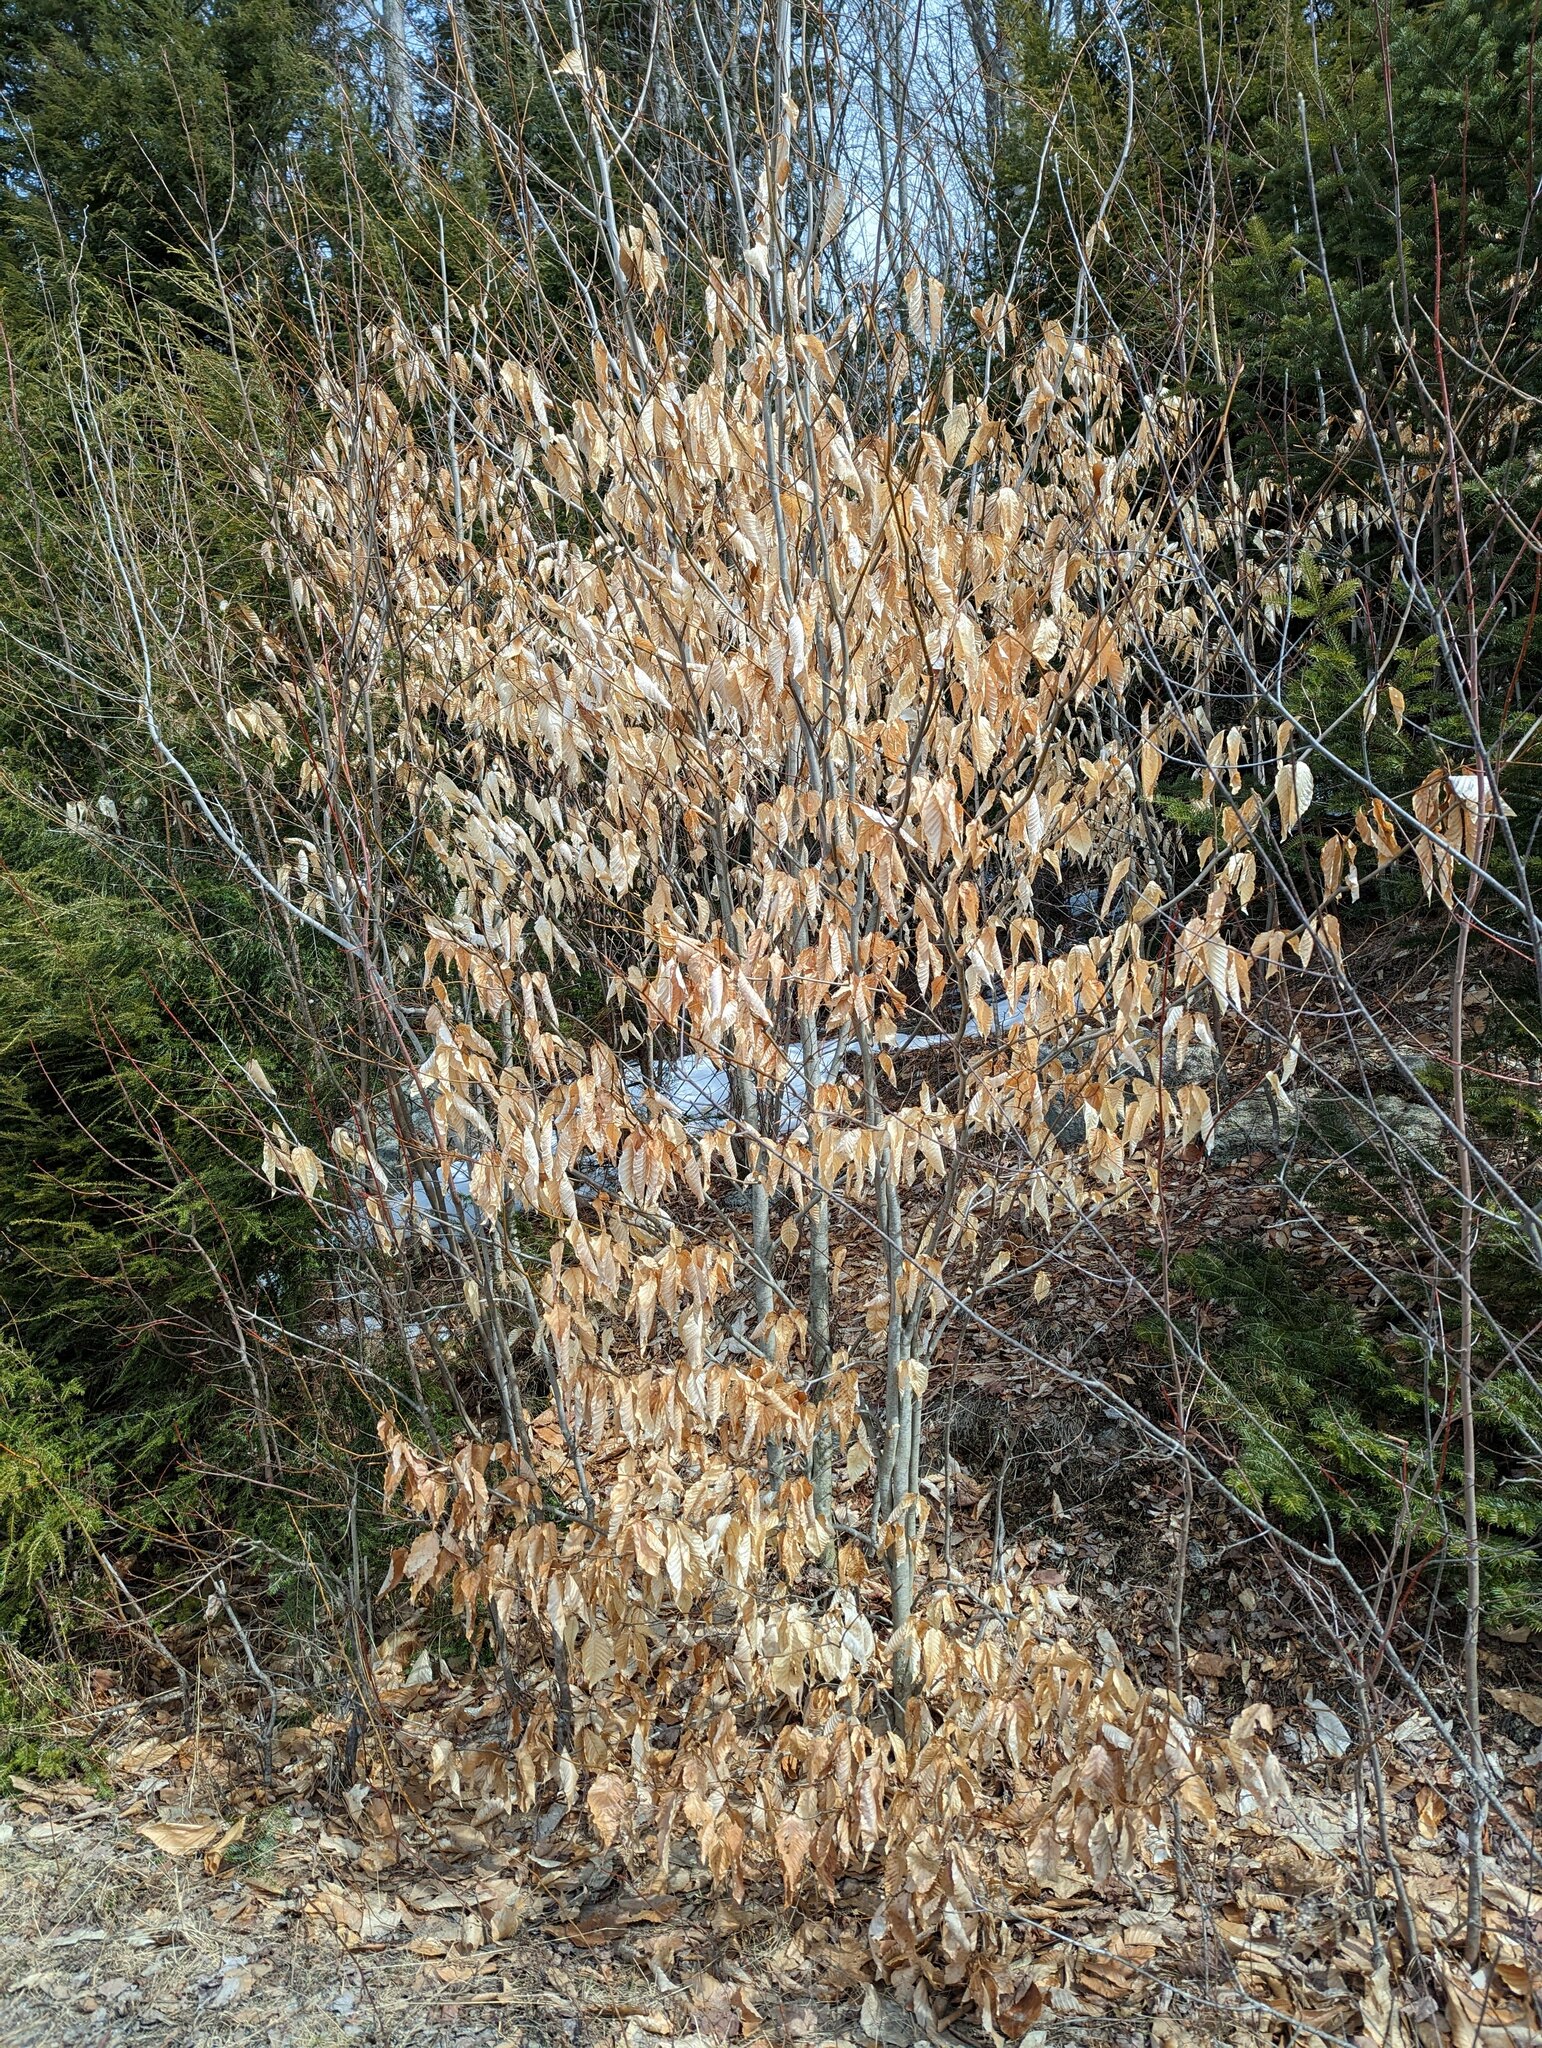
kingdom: Plantae
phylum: Tracheophyta
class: Magnoliopsida
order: Fagales
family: Fagaceae
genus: Fagus
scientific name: Fagus grandifolia
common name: American beech
